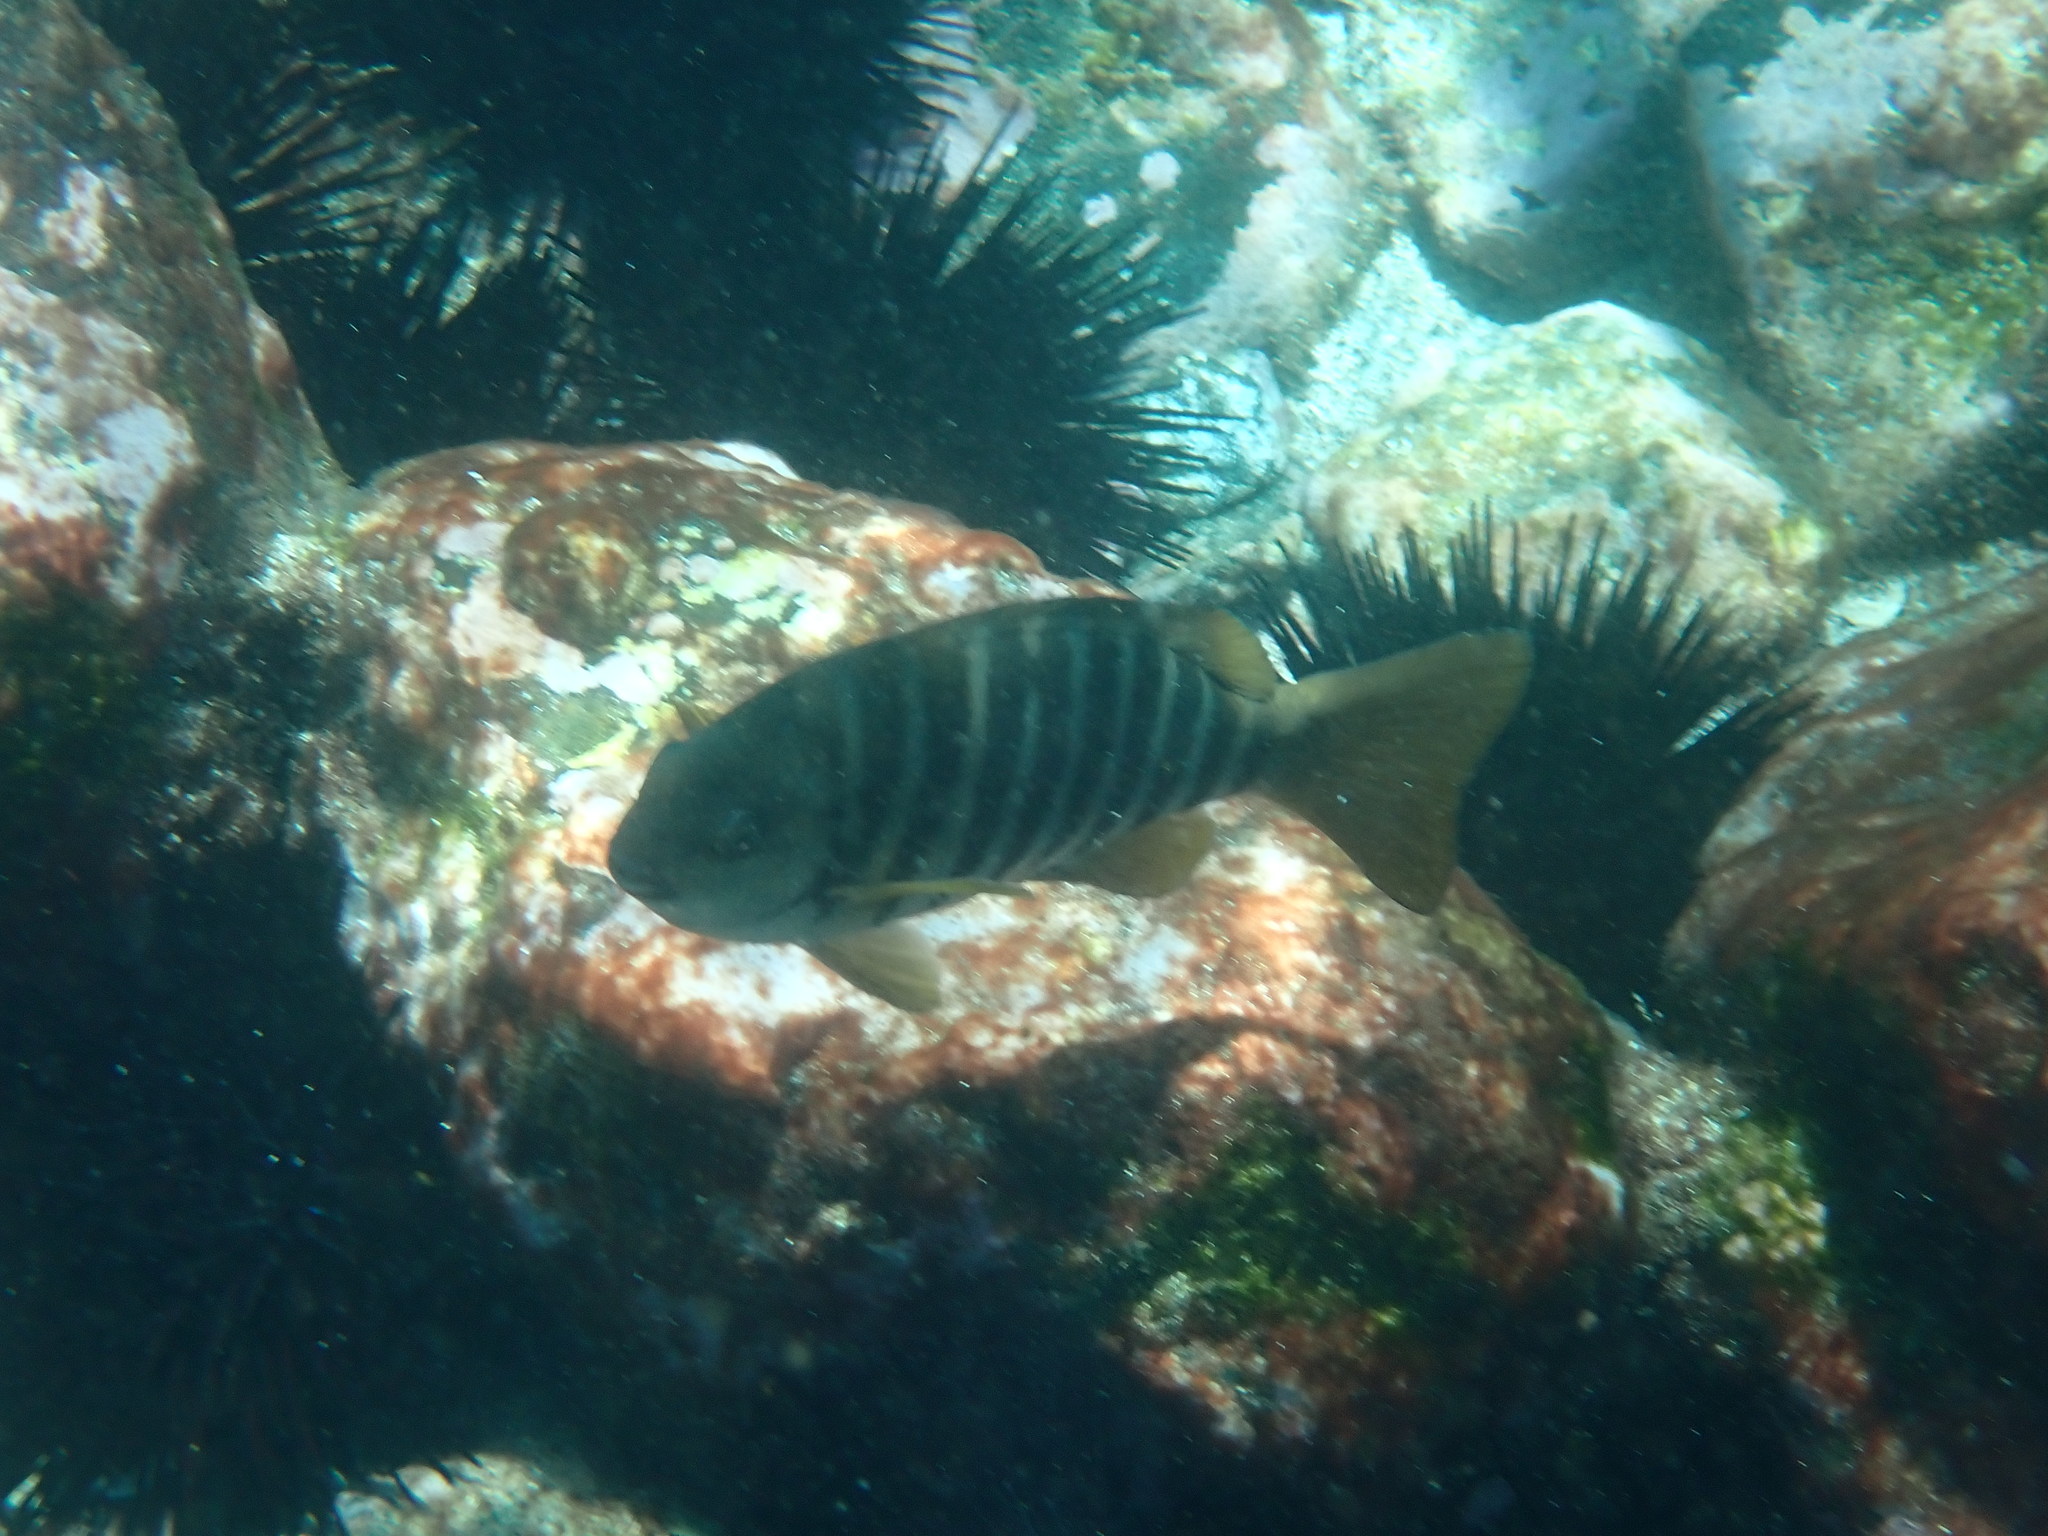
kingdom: Animalia
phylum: Chordata
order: Perciformes
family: Kyphosidae
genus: Girella
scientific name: Girella zebra
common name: Stripey bream
